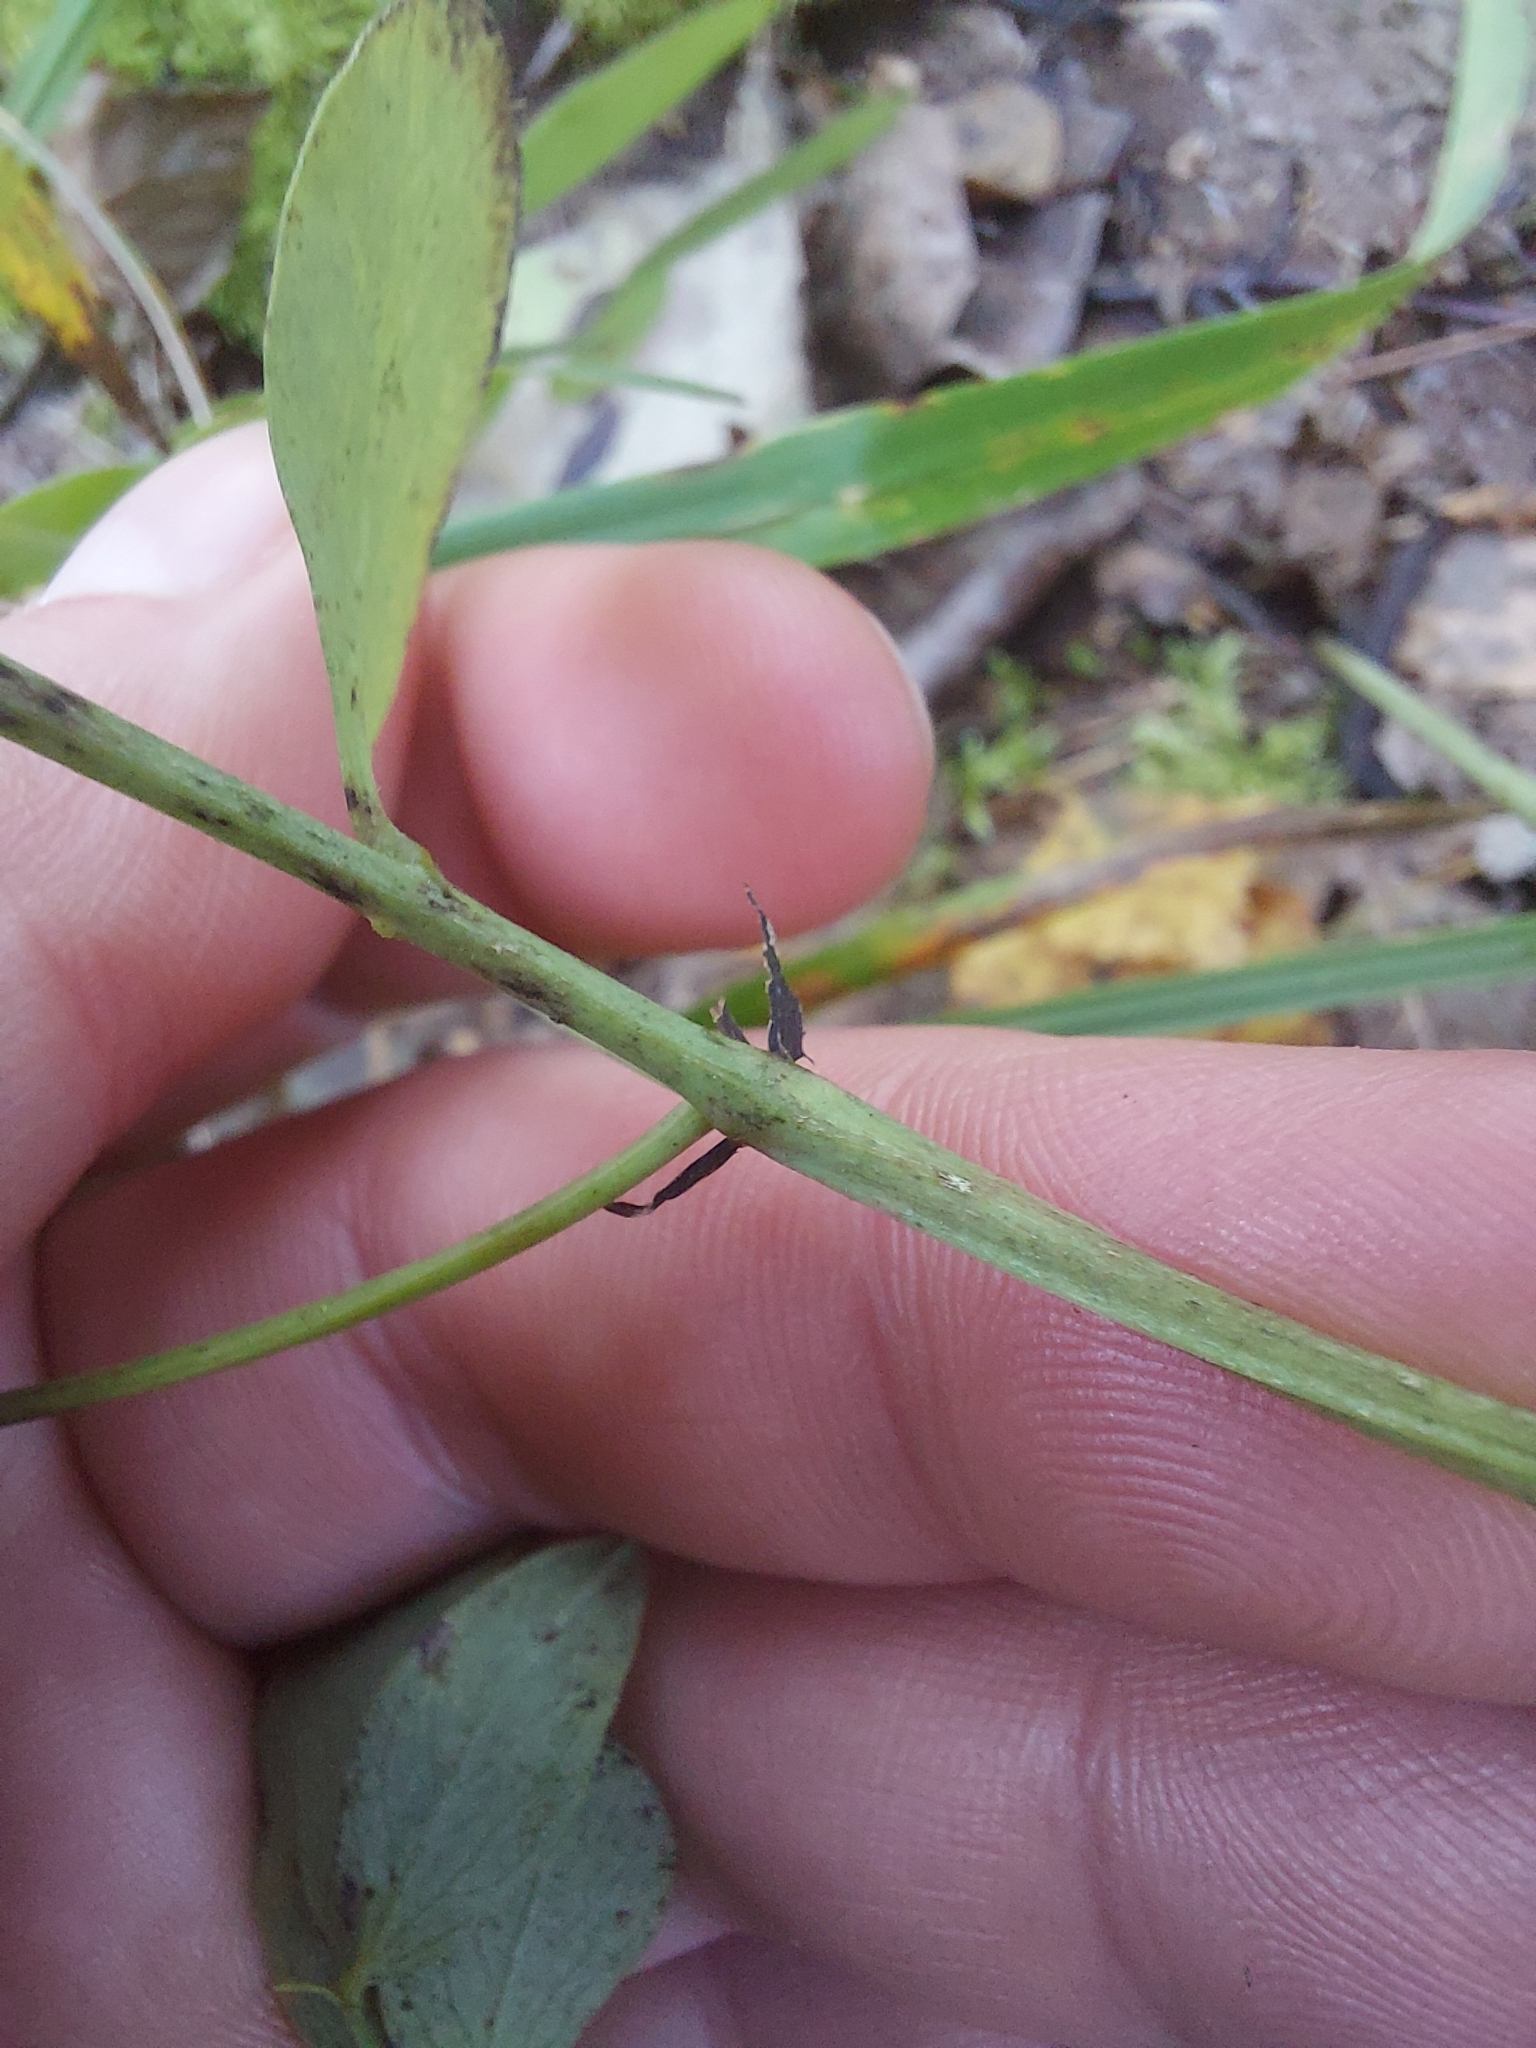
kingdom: Plantae
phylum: Tracheophyta
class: Magnoliopsida
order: Fabales
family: Fabaceae
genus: Lathyrus
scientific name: Lathyrus niger
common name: Black pea
